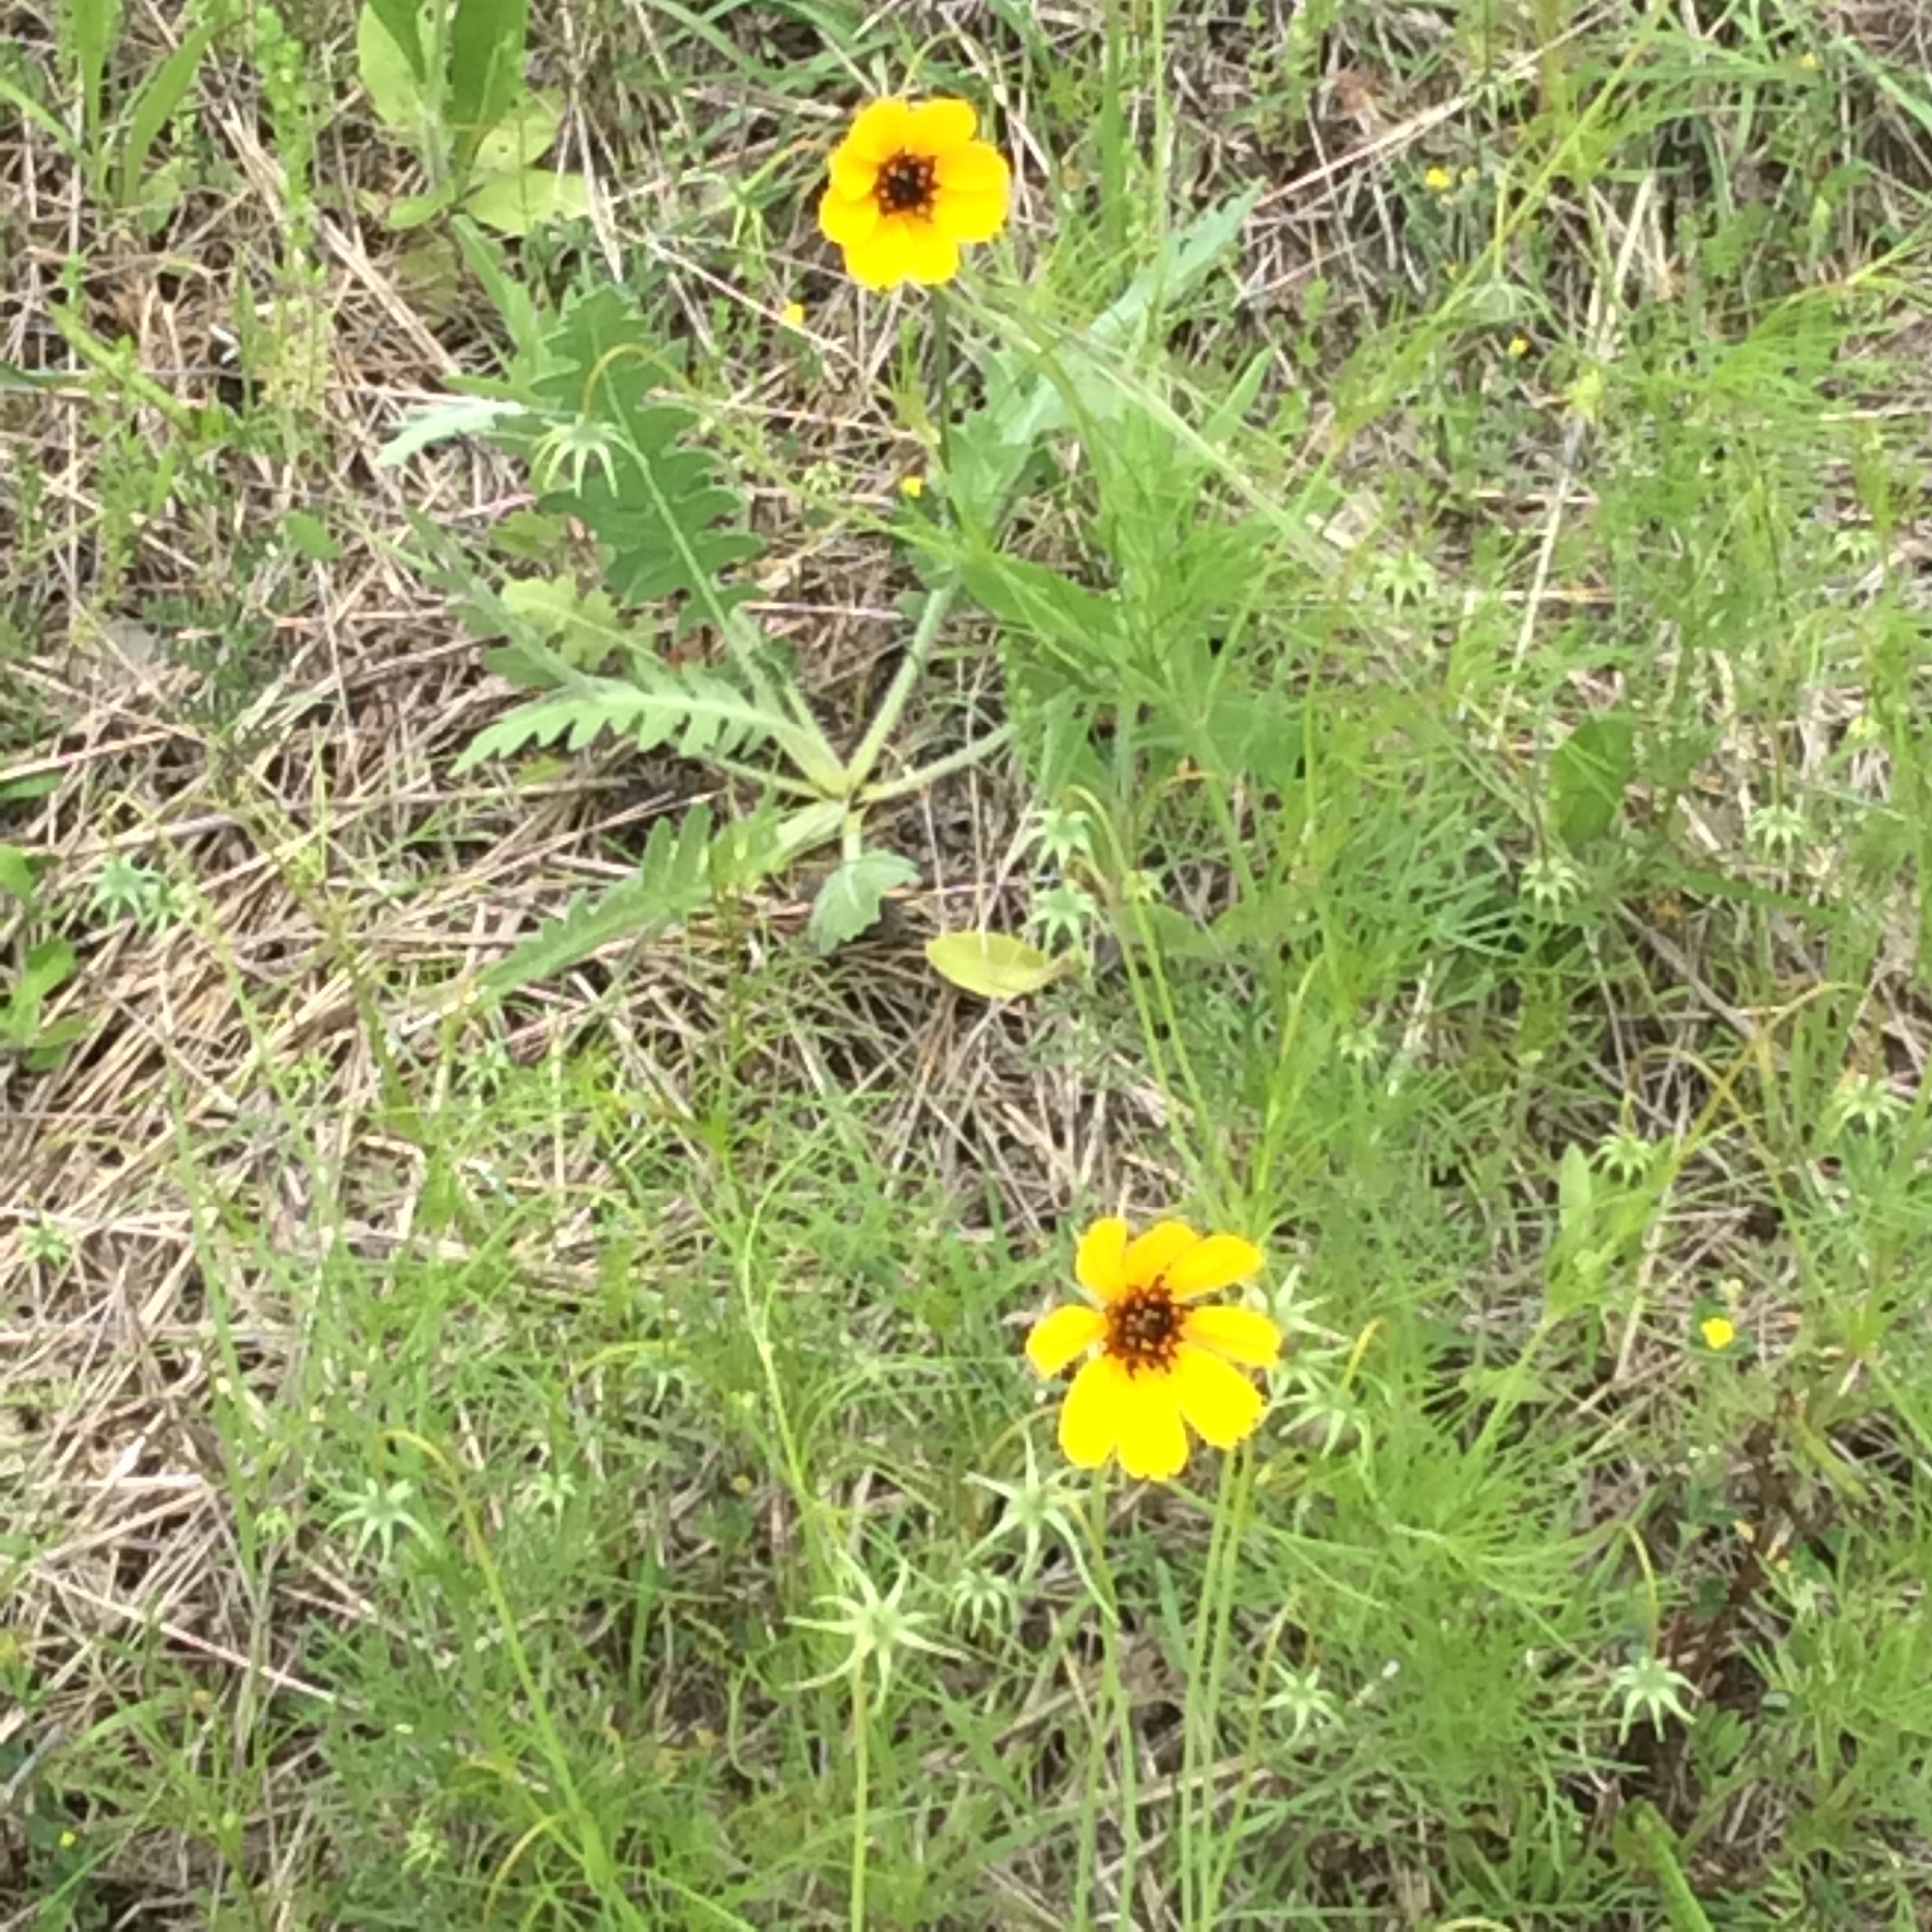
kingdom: Plantae
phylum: Tracheophyta
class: Magnoliopsida
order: Asterales
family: Asteraceae
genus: Thelesperma
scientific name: Thelesperma filifolium
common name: Stiff greenthread
